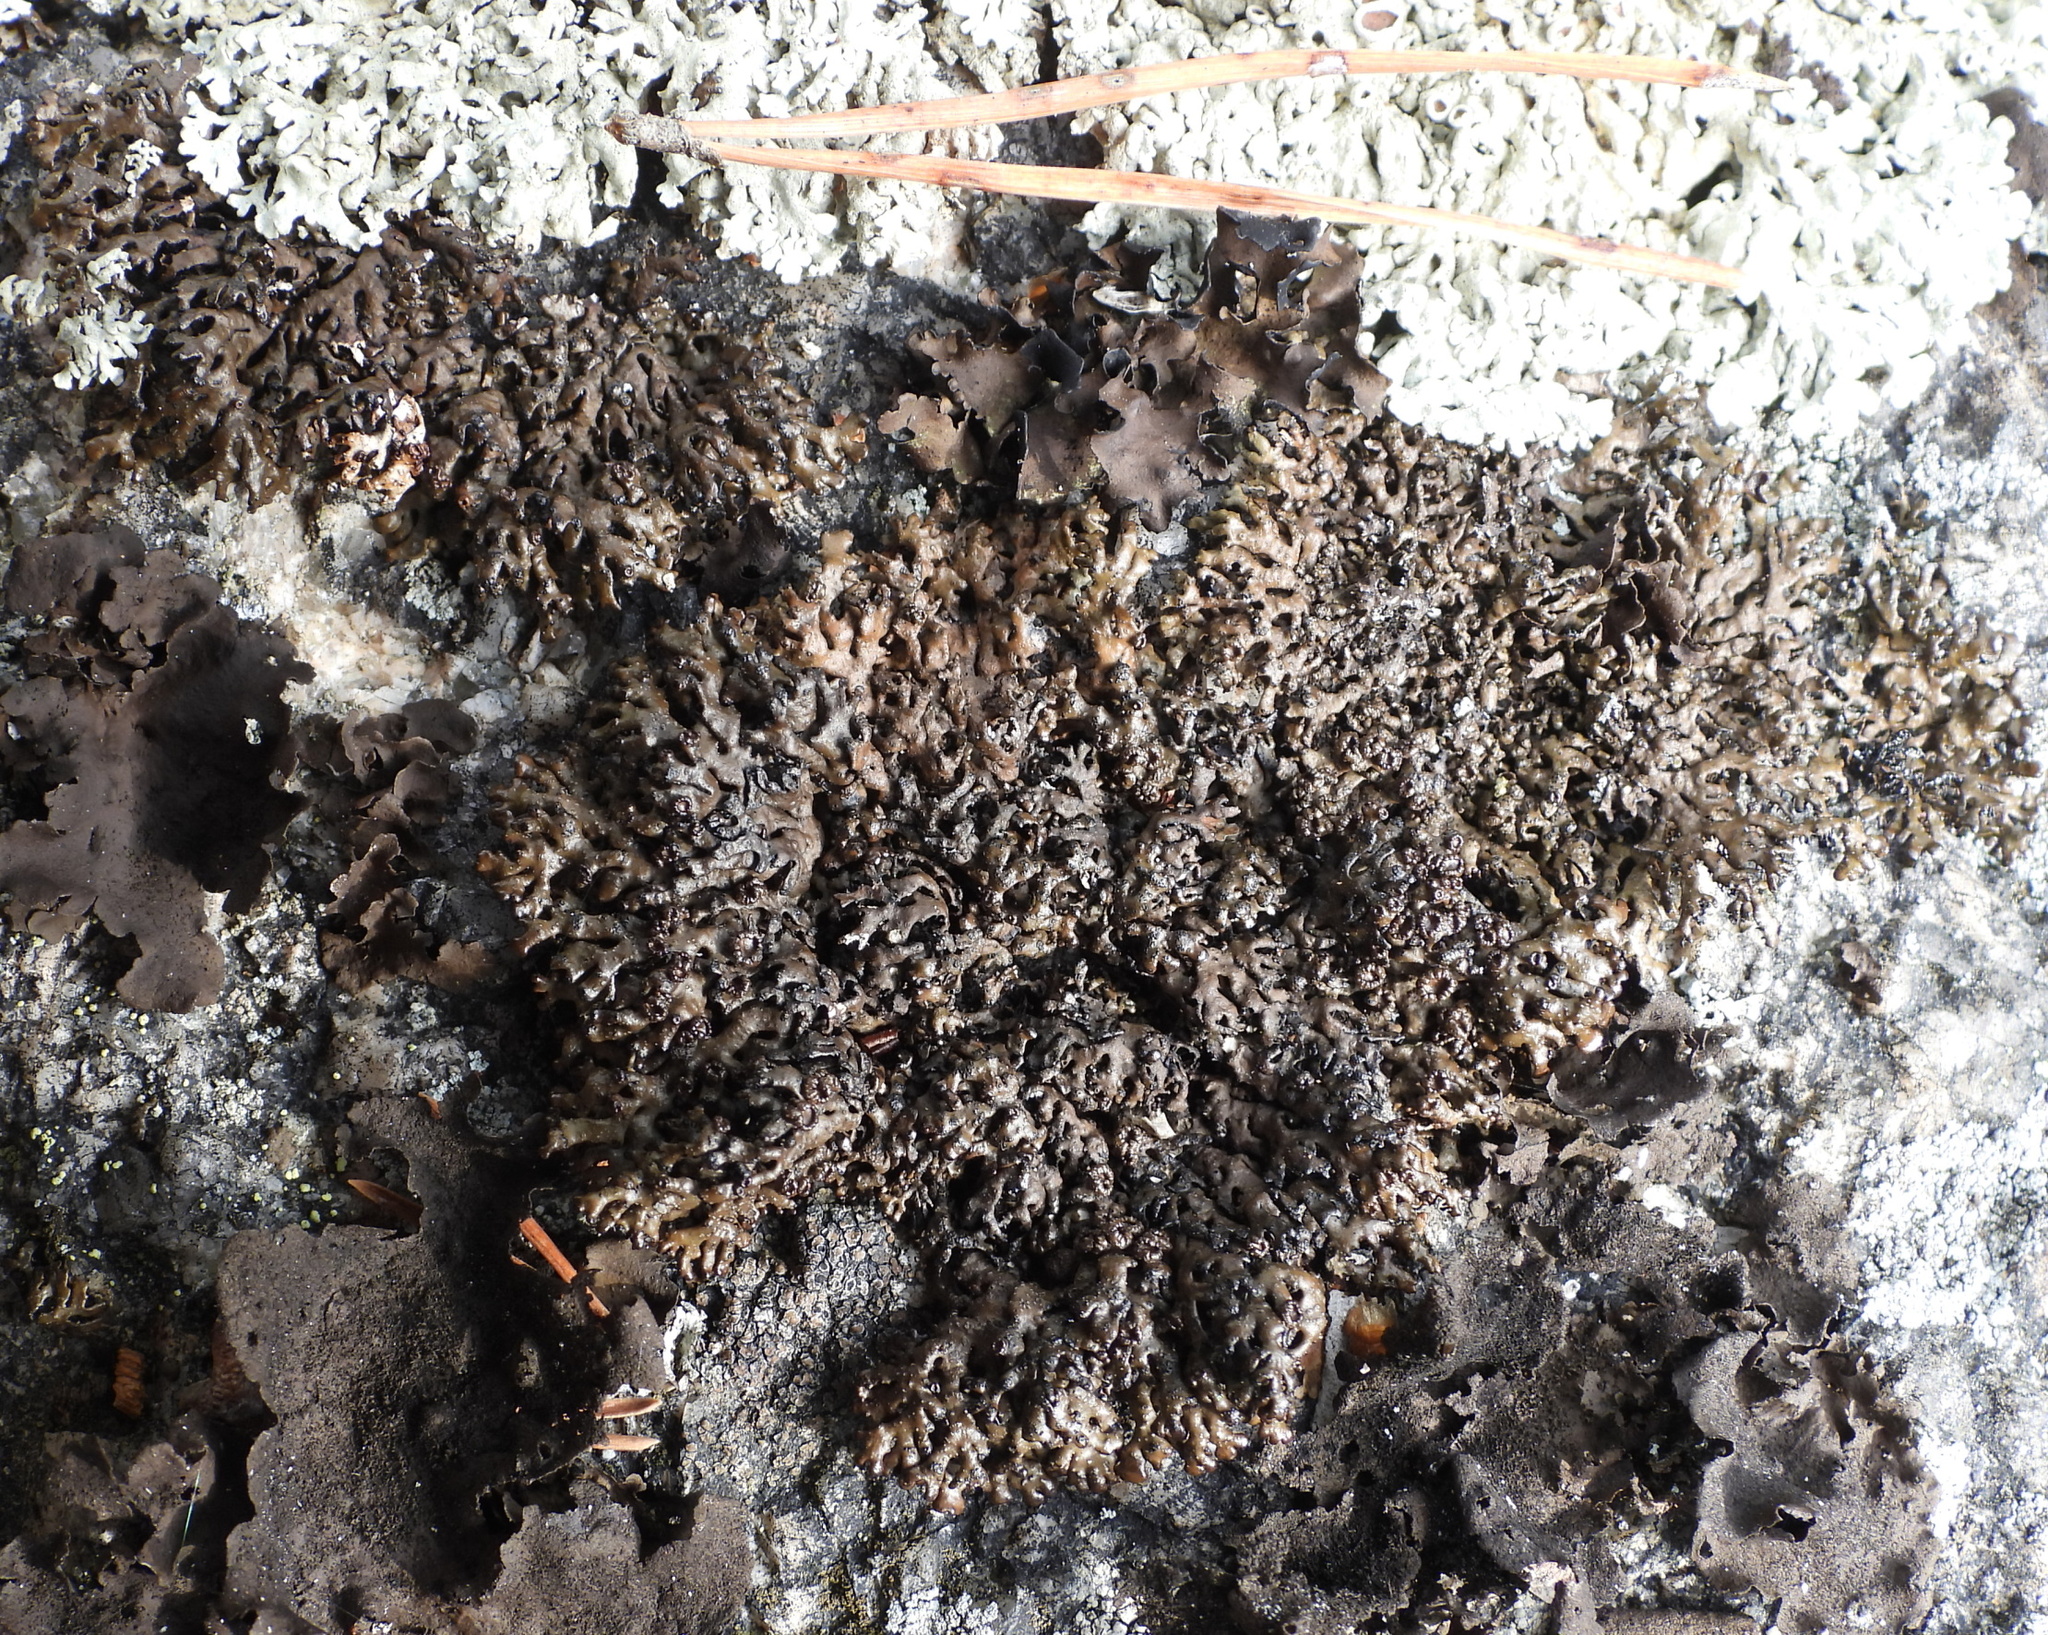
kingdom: Fungi
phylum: Ascomycota
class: Lecanoromycetes
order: Lecanorales
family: Parmeliaceae
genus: Melanelia
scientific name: Melanelia stygia
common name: Alpine camouflage lichen
